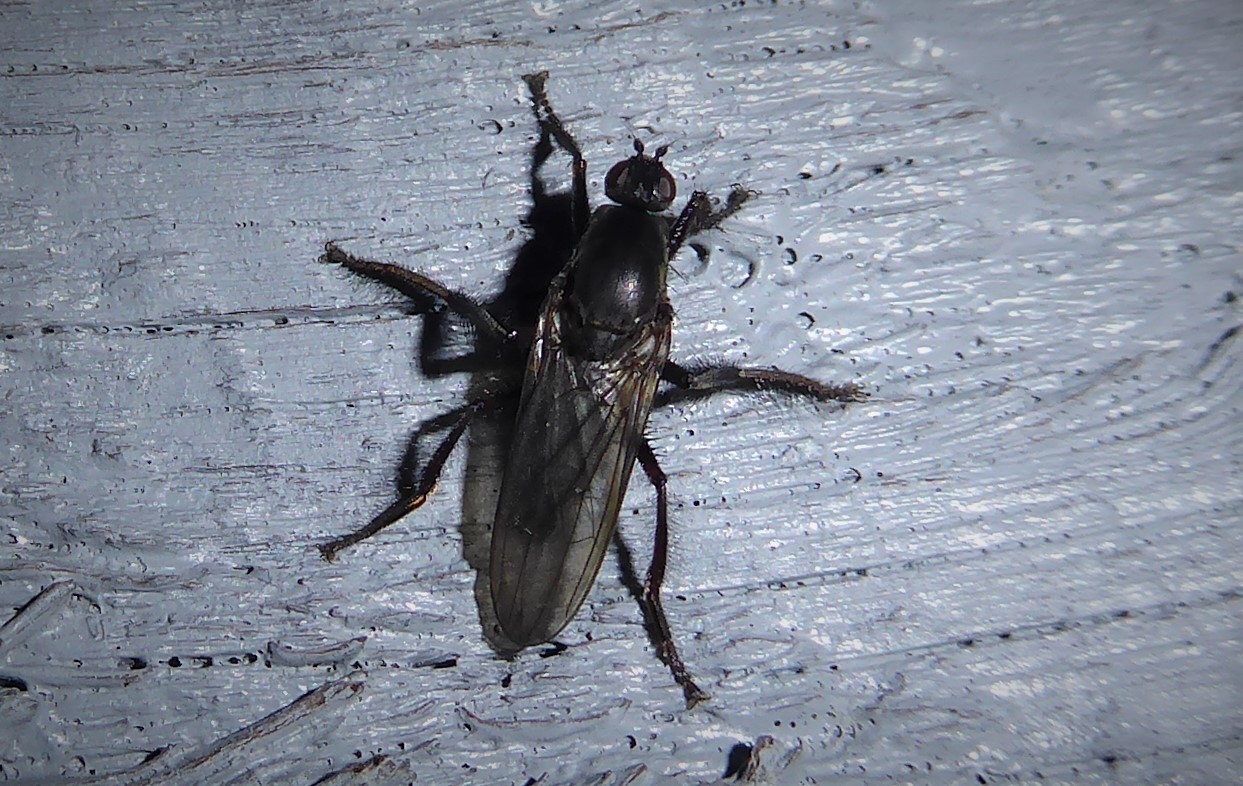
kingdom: Animalia
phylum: Arthropoda
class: Insecta
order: Diptera
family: Coelopidae
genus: Chaetocoelopa
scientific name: Chaetocoelopa littoralis
